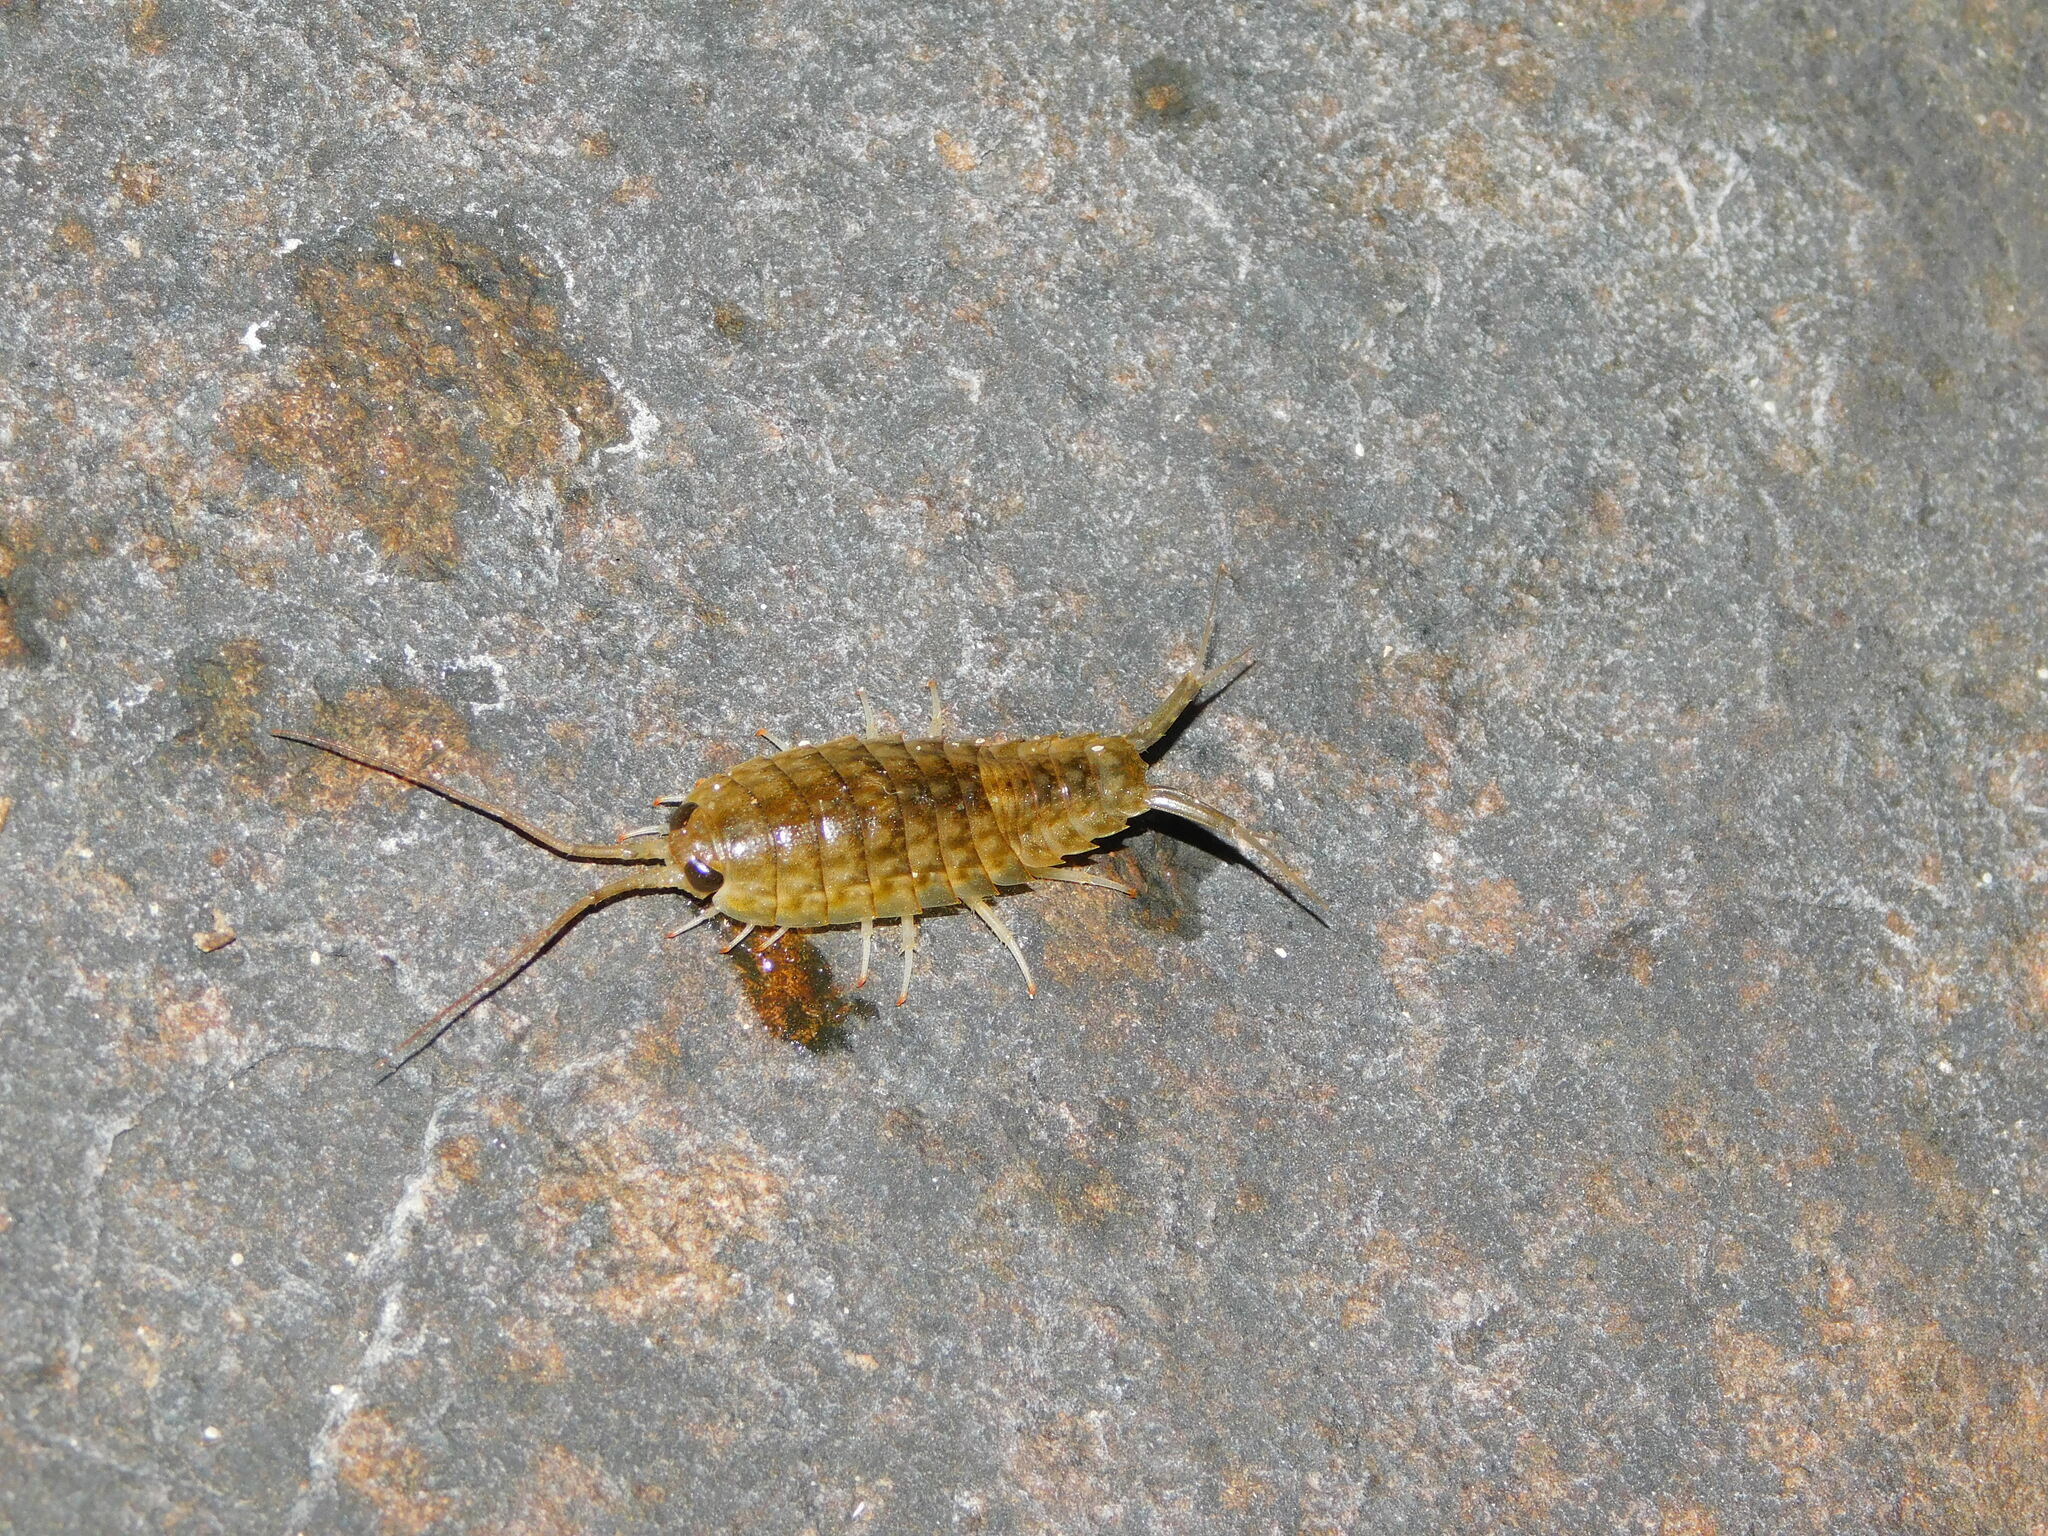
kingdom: Animalia
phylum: Arthropoda
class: Malacostraca
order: Isopoda
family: Ligiidae
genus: Ligia
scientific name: Ligia exotica
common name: Wharf roach
